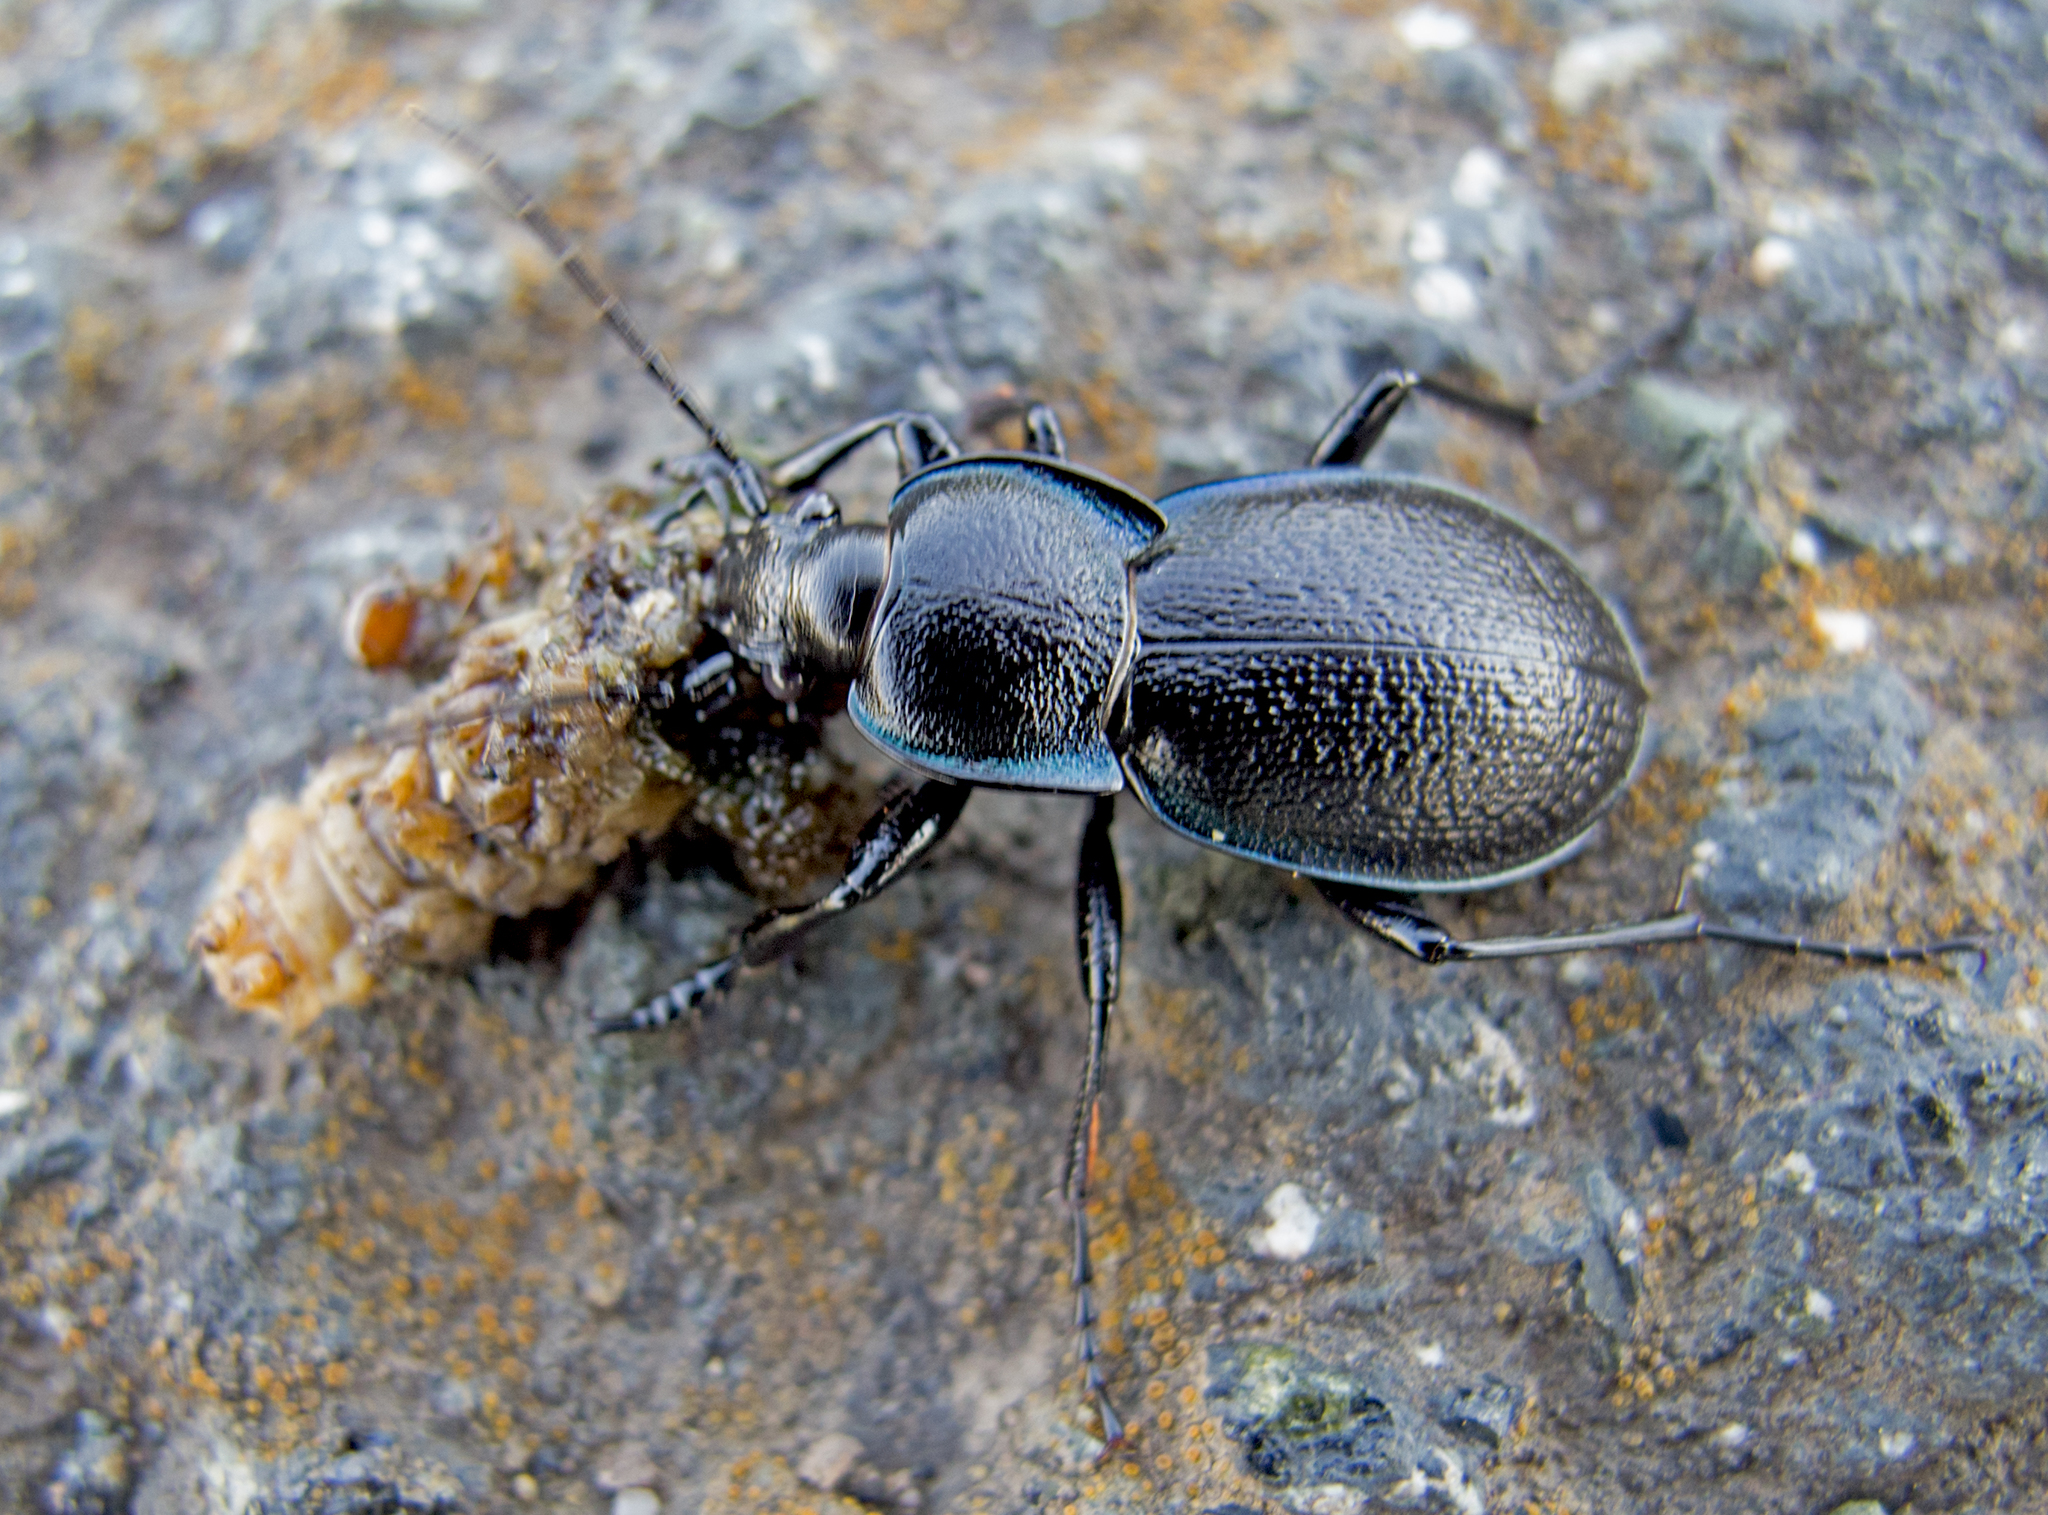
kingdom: Animalia
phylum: Arthropoda
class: Insecta
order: Coleoptera
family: Carabidae
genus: Carabus
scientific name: Carabus wiedemanni
